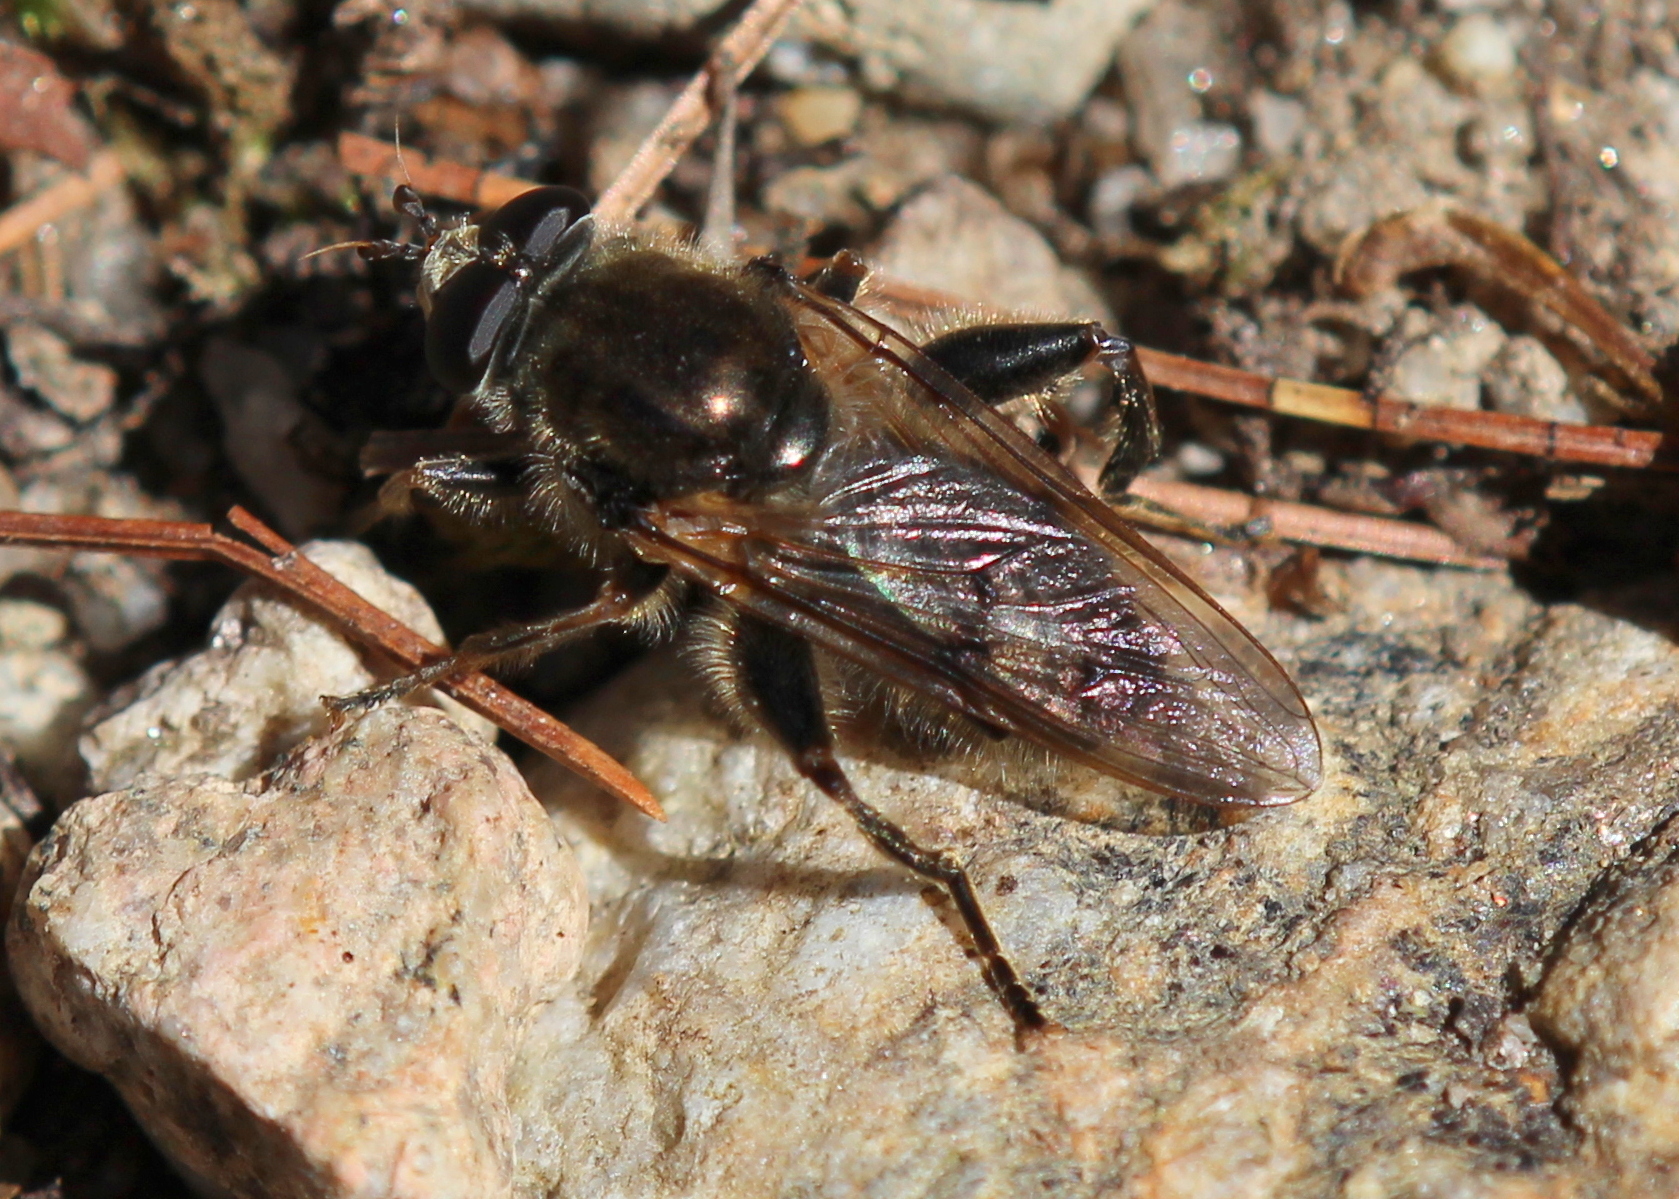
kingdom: Animalia
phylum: Arthropoda
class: Insecta
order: Diptera
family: Syrphidae
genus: Brachypalpus
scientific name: Brachypalpus oarus
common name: Eastern catkin fly
